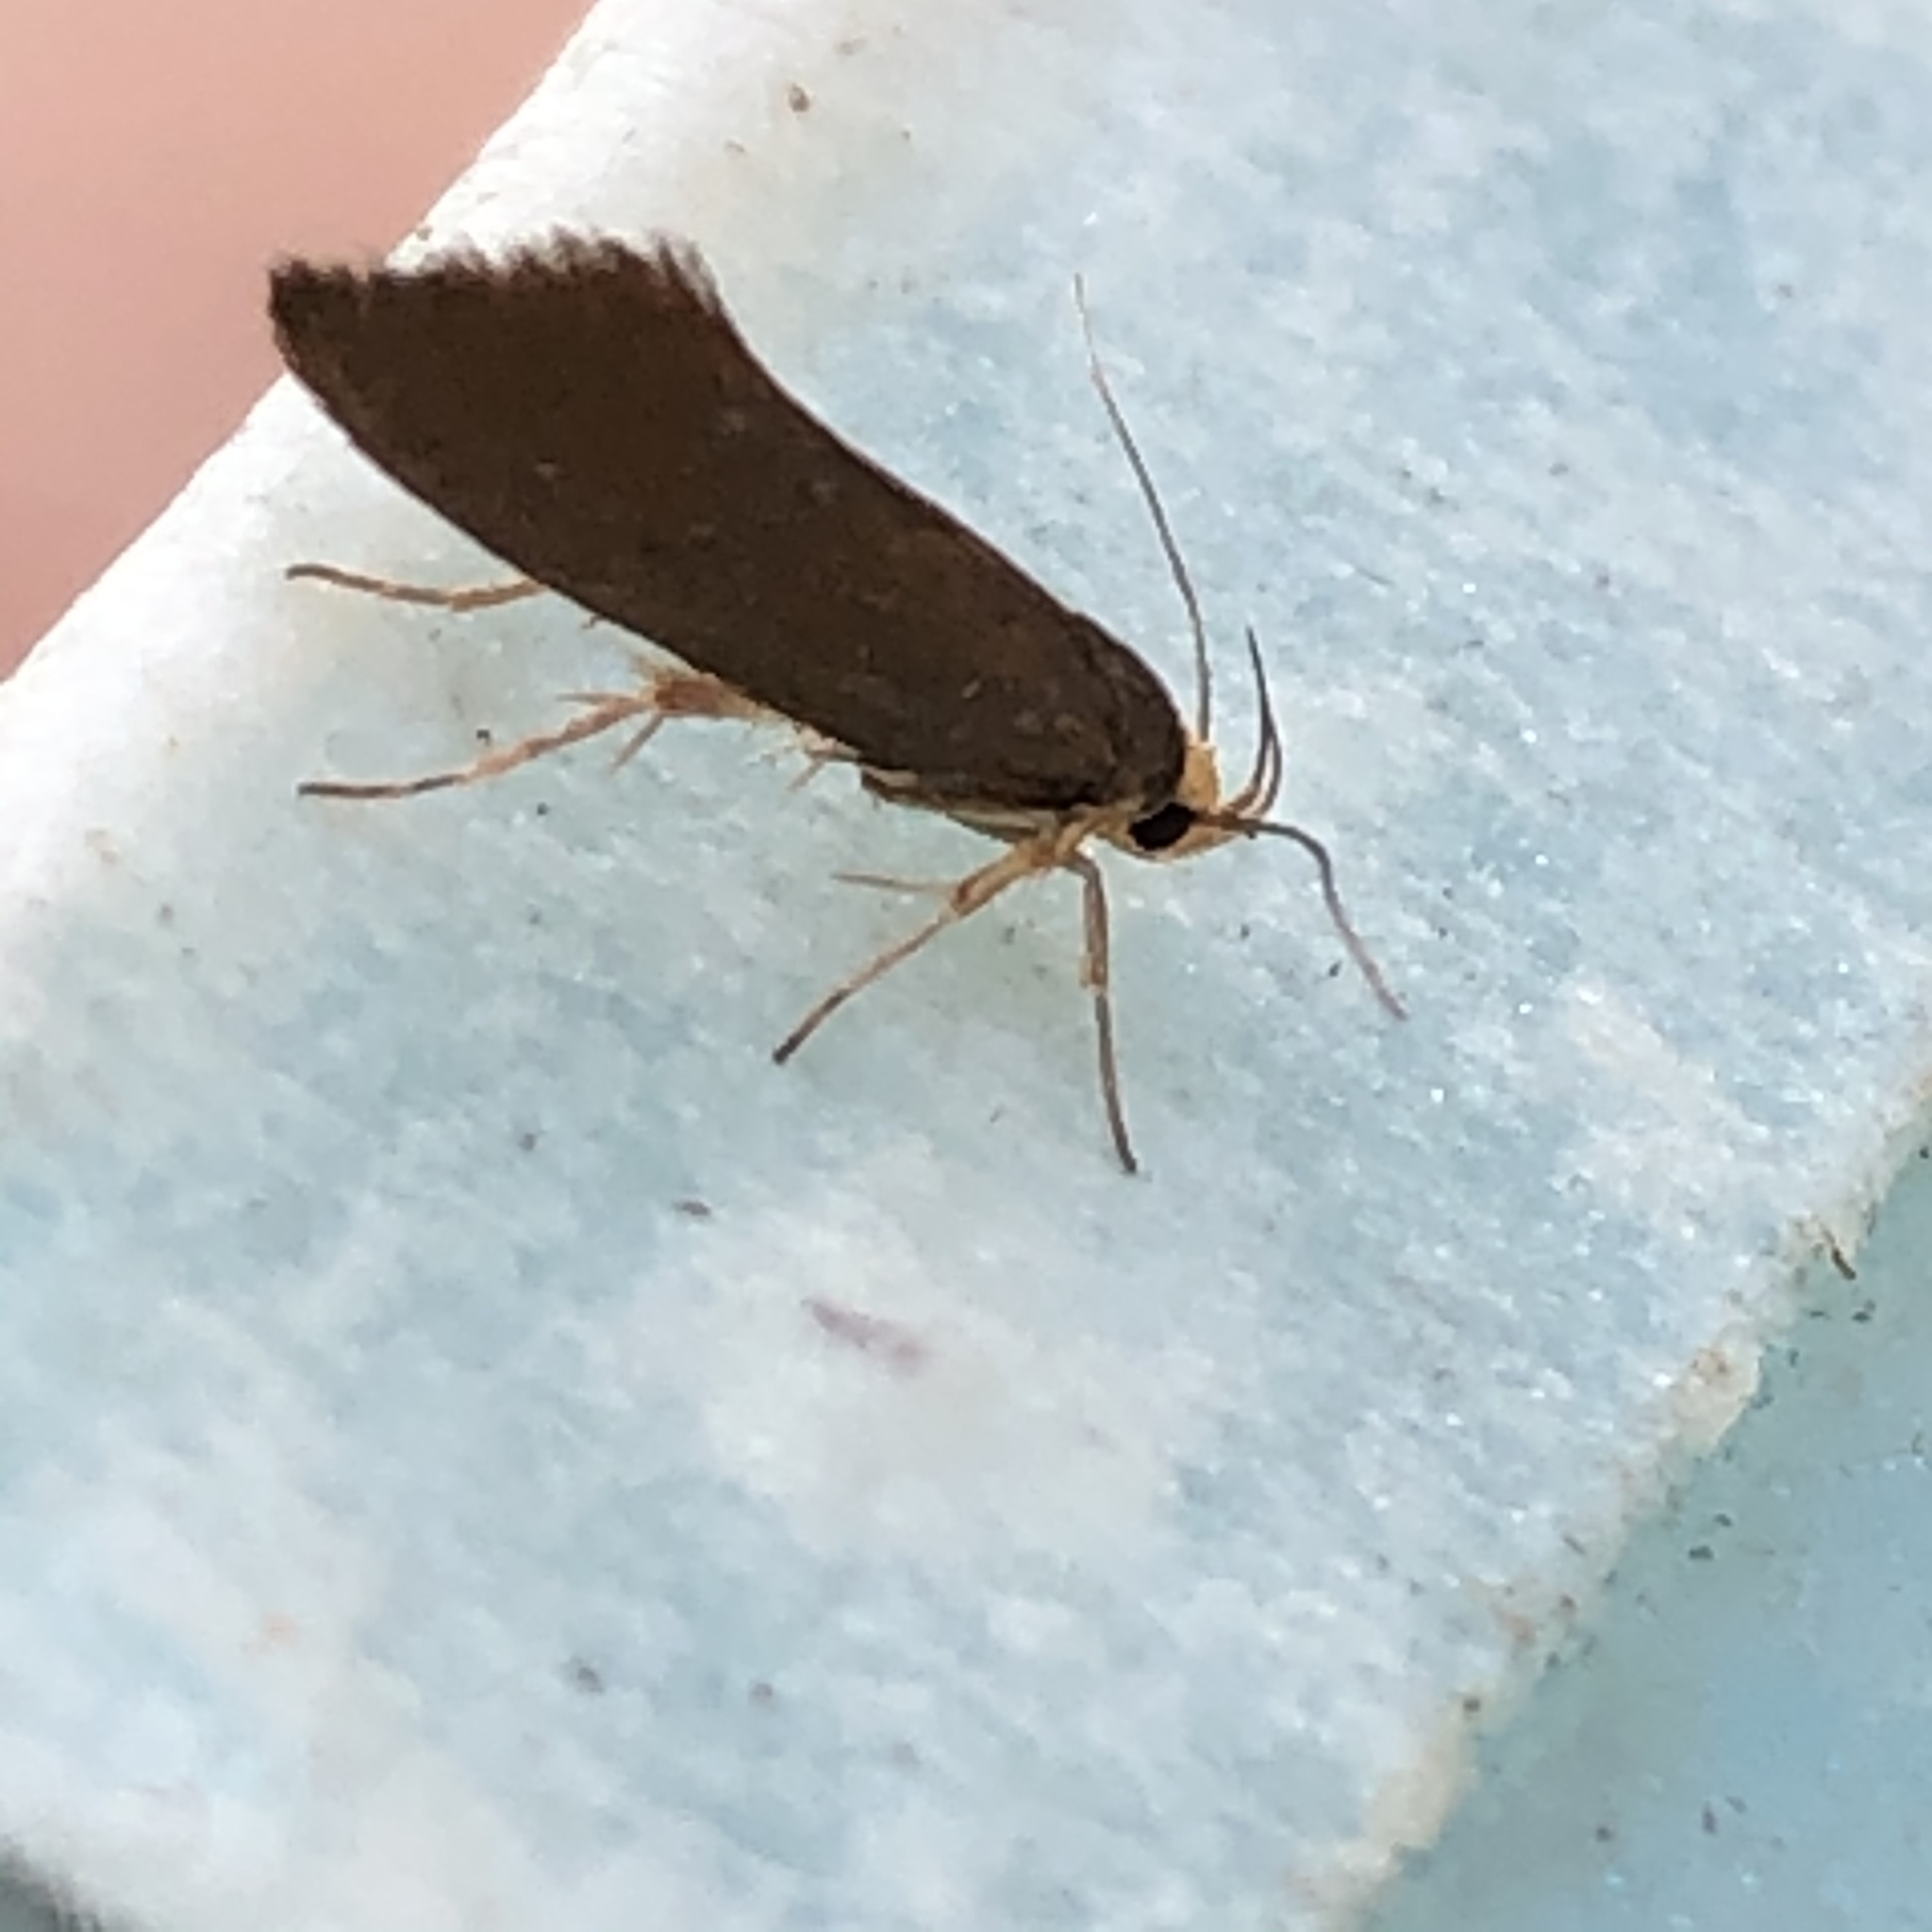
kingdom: Animalia
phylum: Arthropoda
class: Insecta
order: Lepidoptera
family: Oecophoridae
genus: Borkhausenia
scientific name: Borkhausenia Crassa unitella
